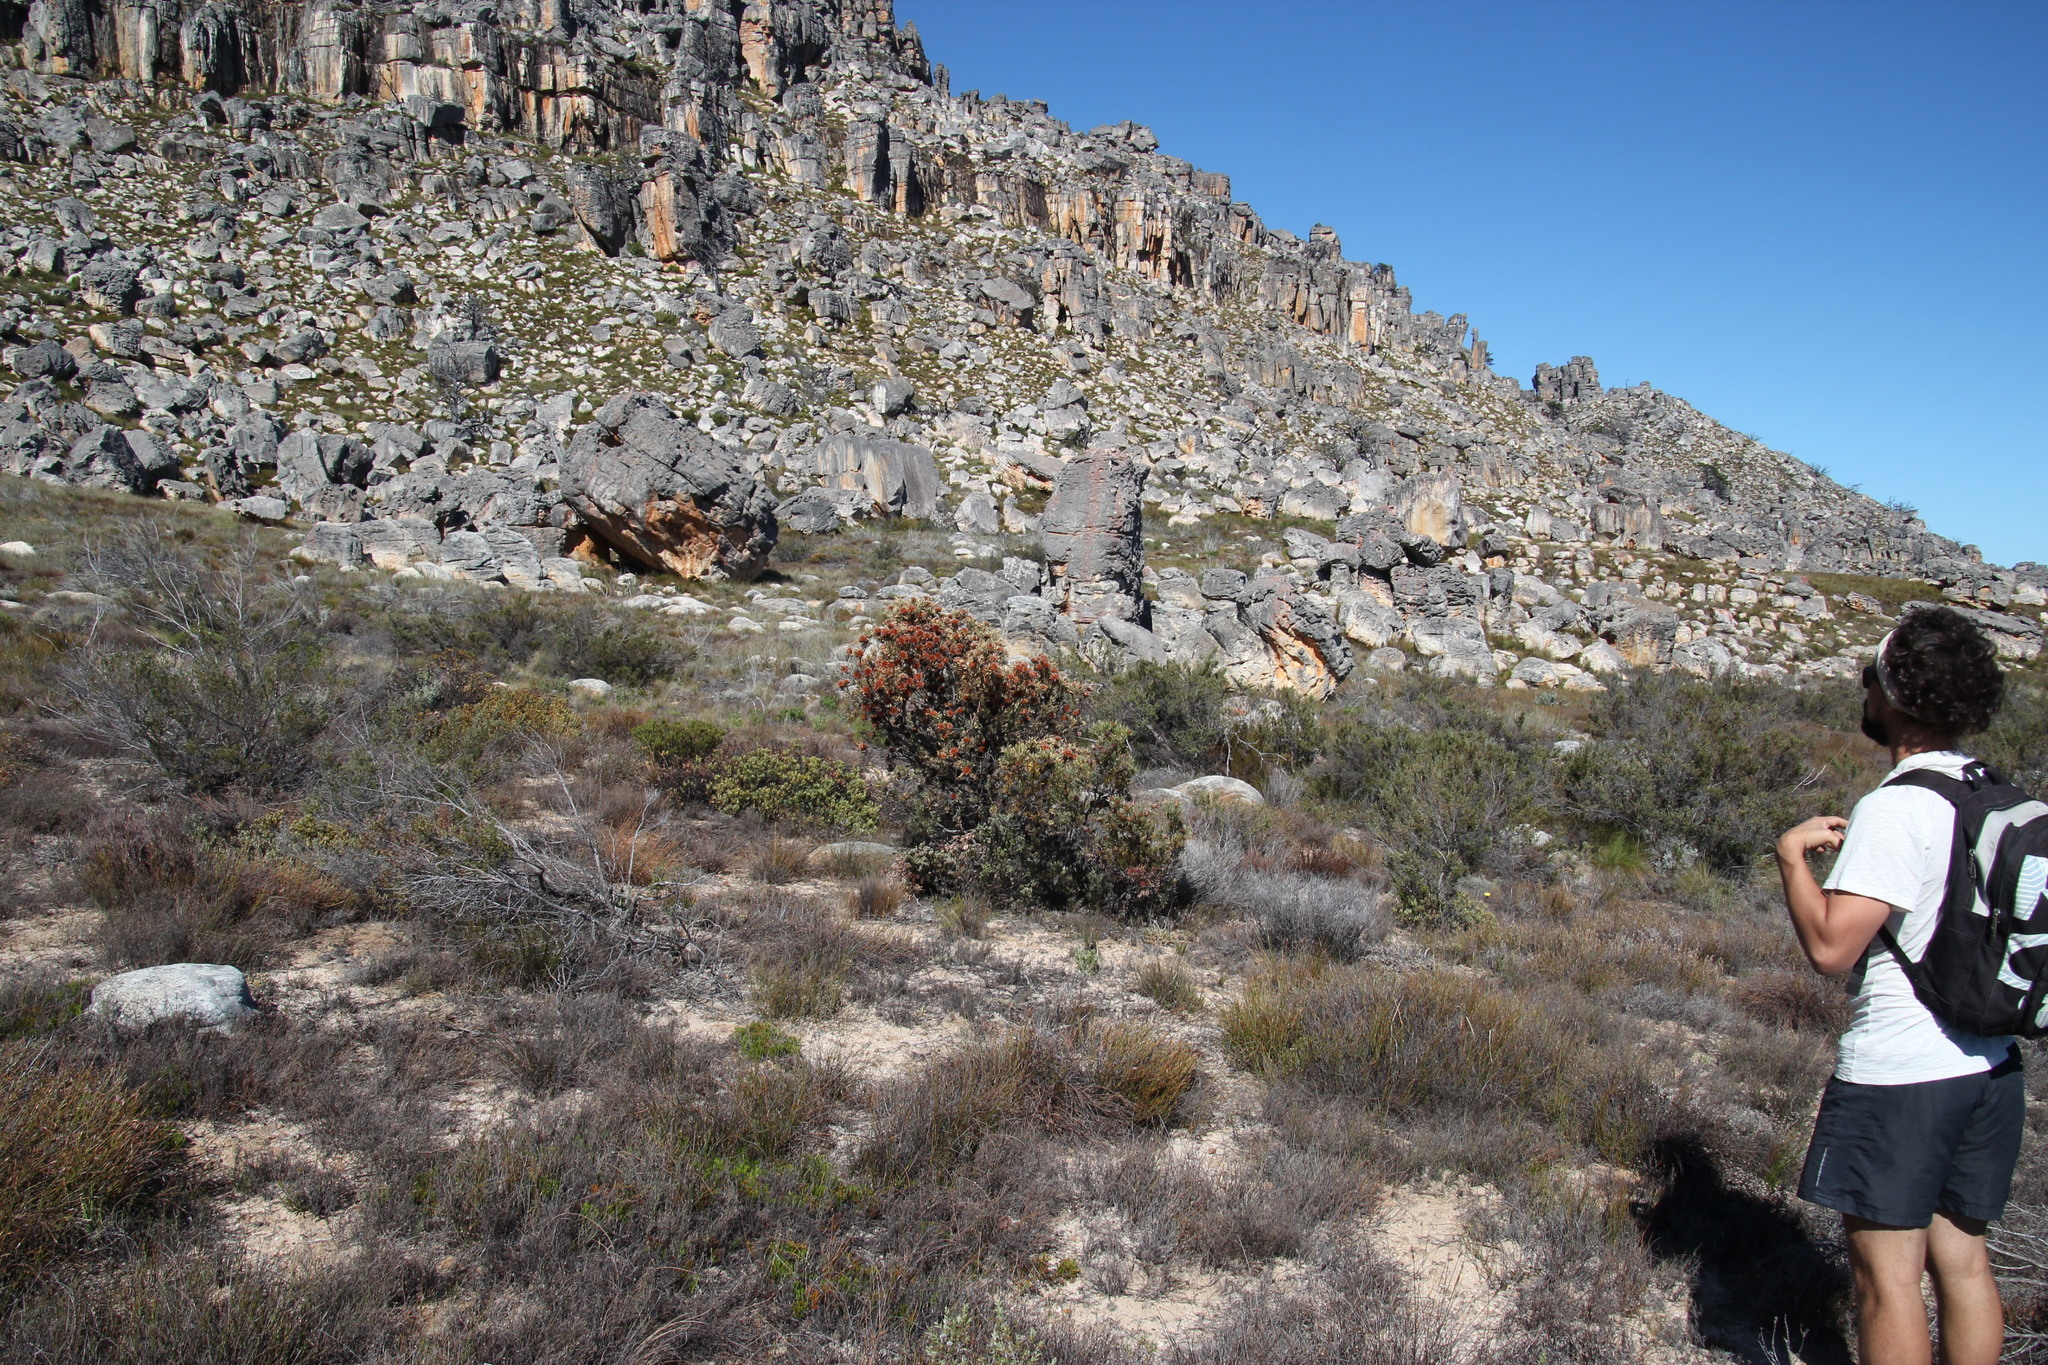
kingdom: Plantae
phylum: Tracheophyta
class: Magnoliopsida
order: Proteales
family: Proteaceae
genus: Leucadendron
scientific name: Leucadendron rubrum
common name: Spinning top
